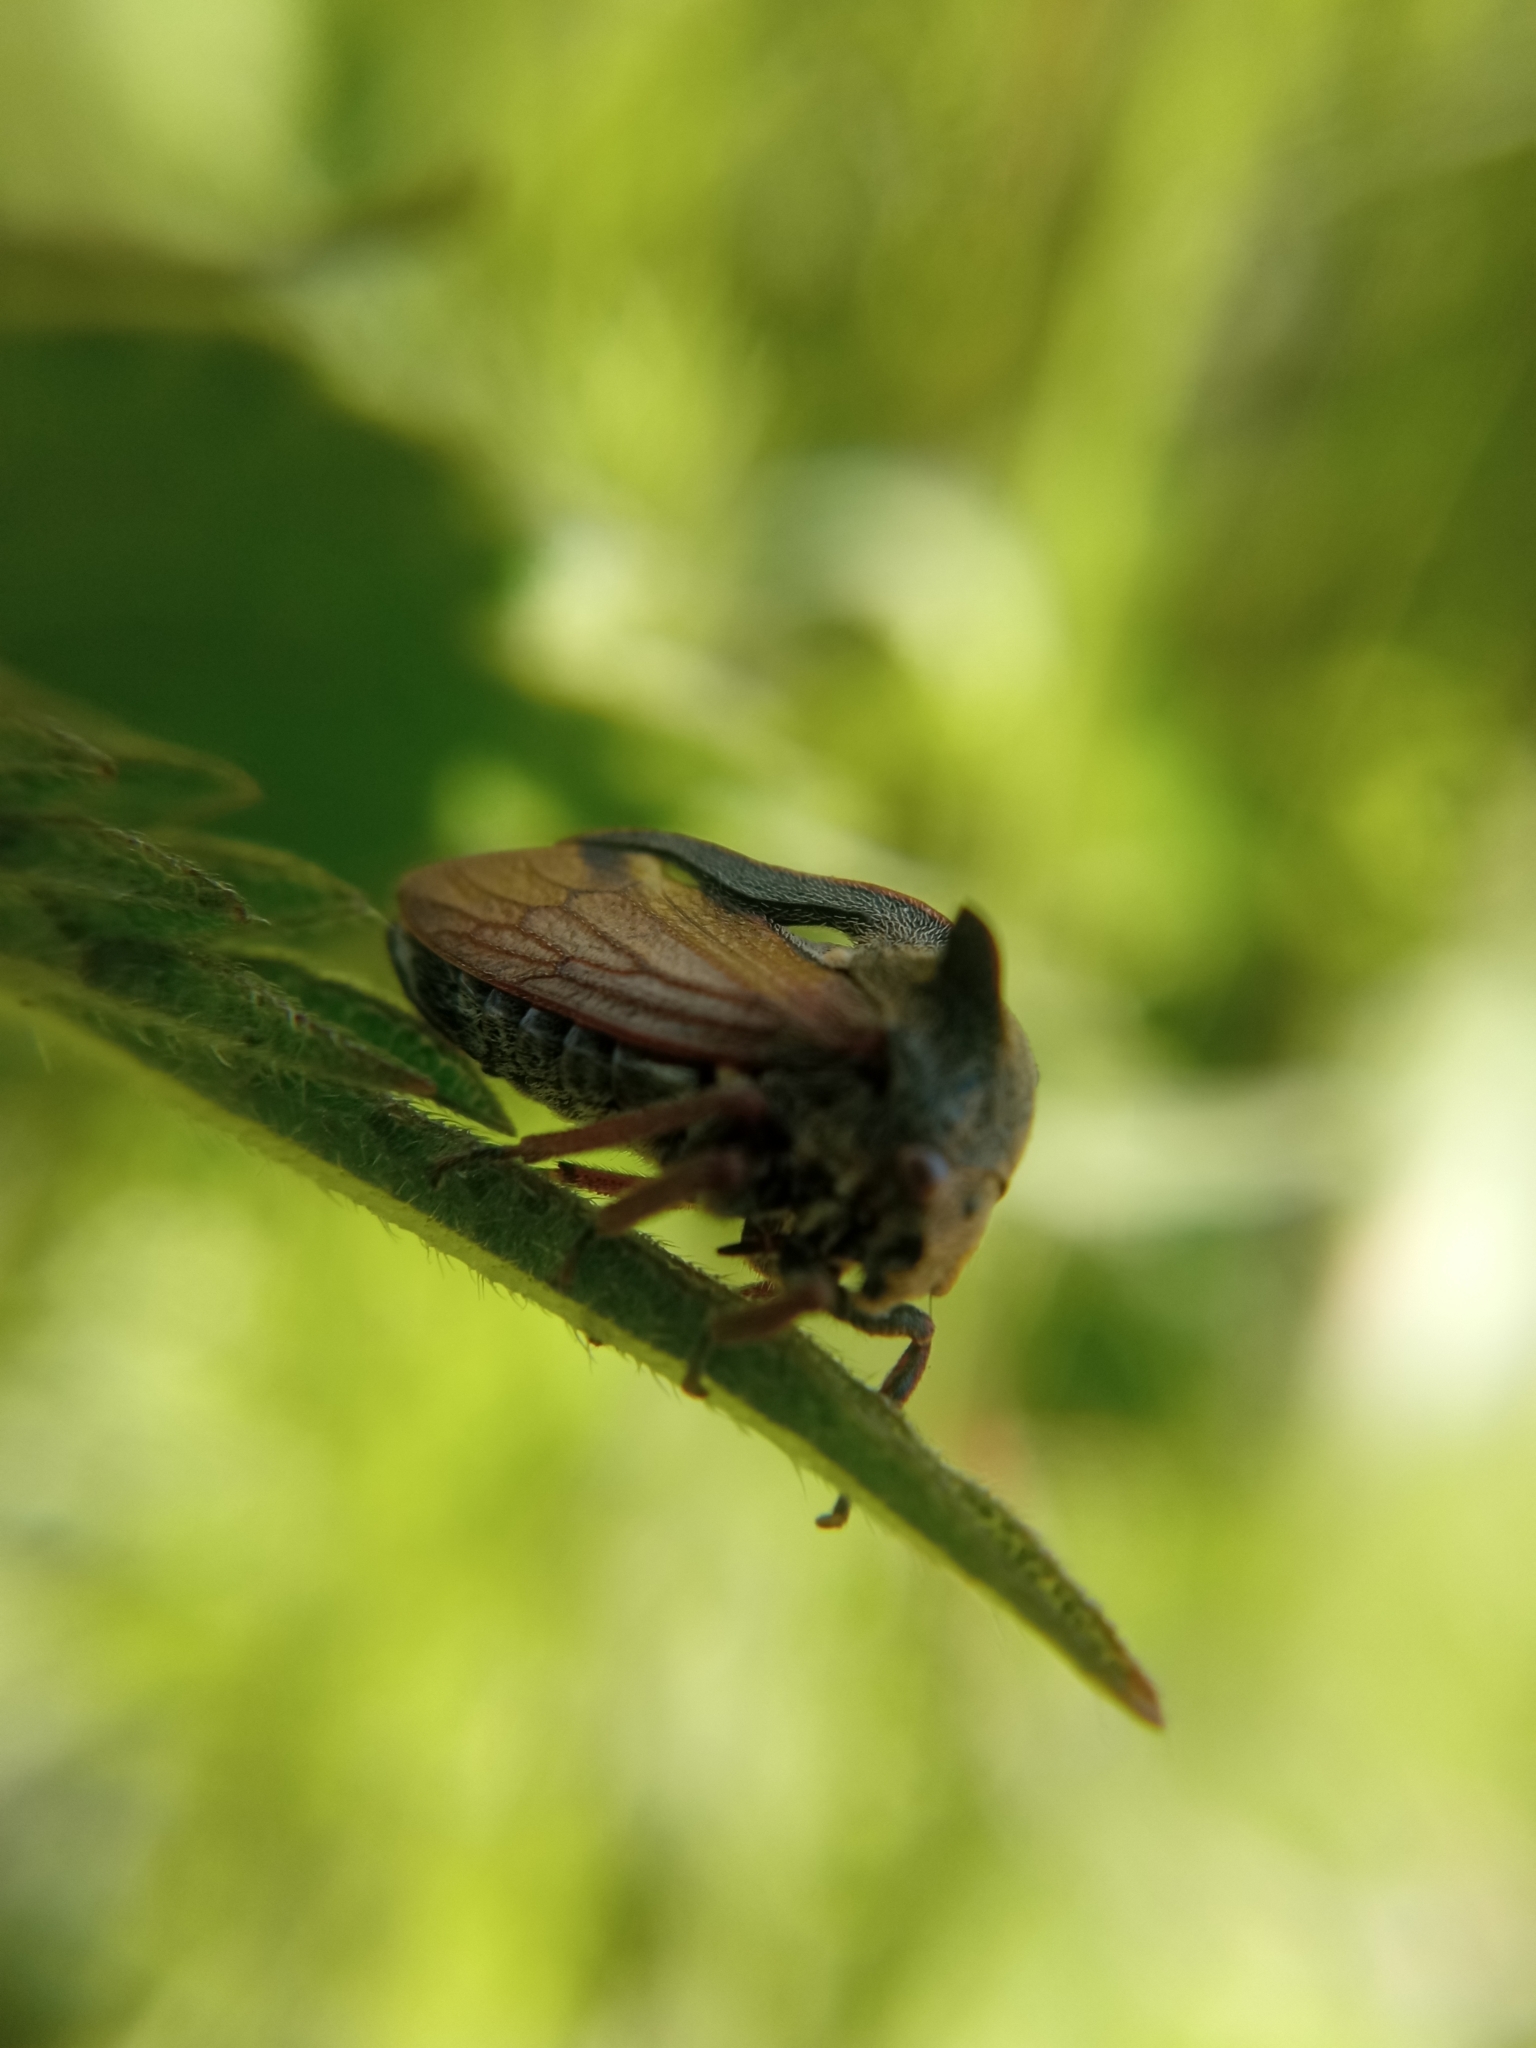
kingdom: Animalia
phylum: Arthropoda
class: Insecta
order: Hemiptera
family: Membracidae
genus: Centrotus
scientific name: Centrotus cornuta
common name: Treehopper
